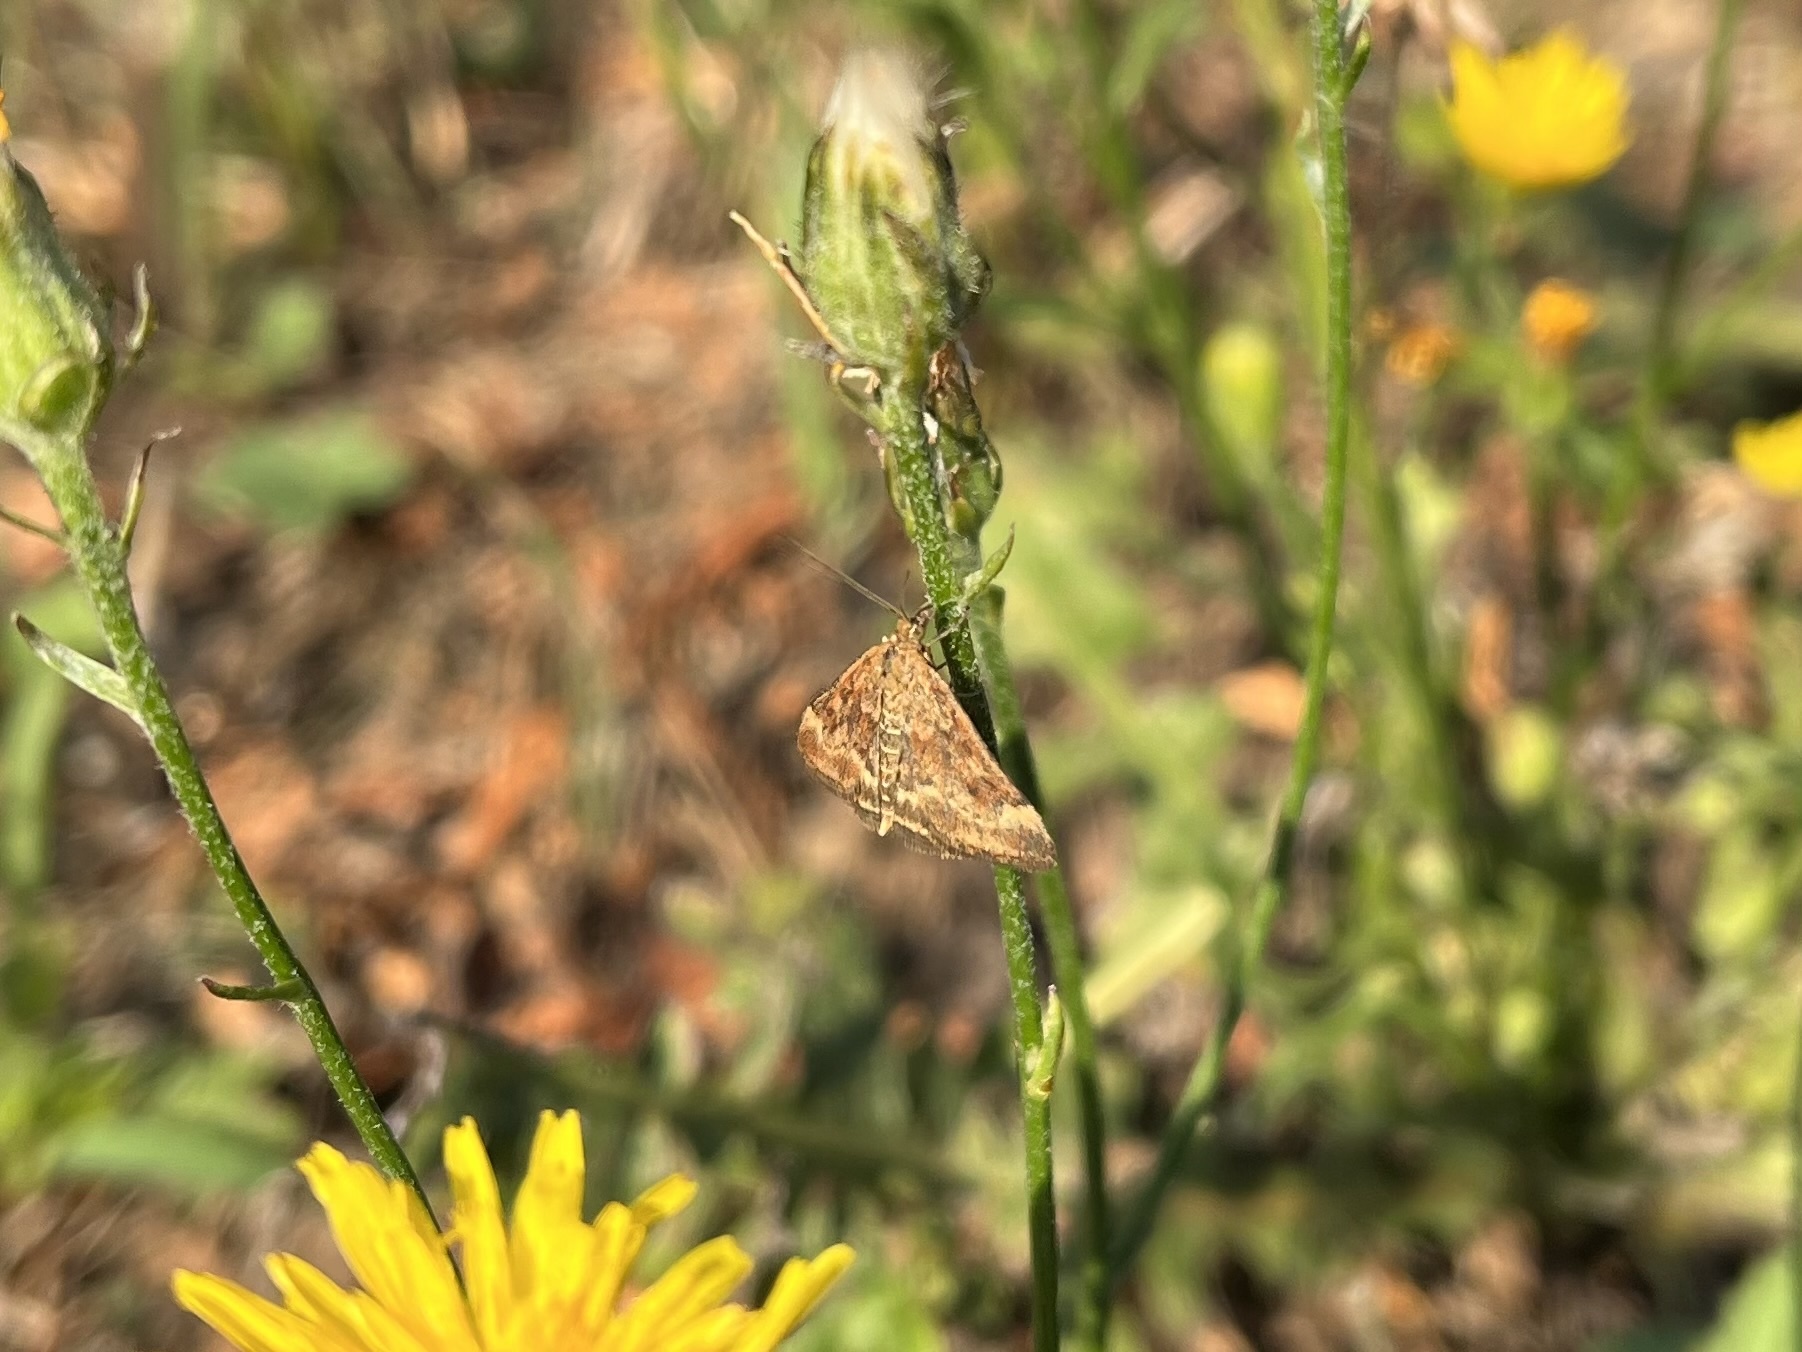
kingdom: Animalia
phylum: Arthropoda
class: Insecta
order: Lepidoptera
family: Crambidae
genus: Pyrausta
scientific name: Pyrausta despicata
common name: Straw-barred pearl
